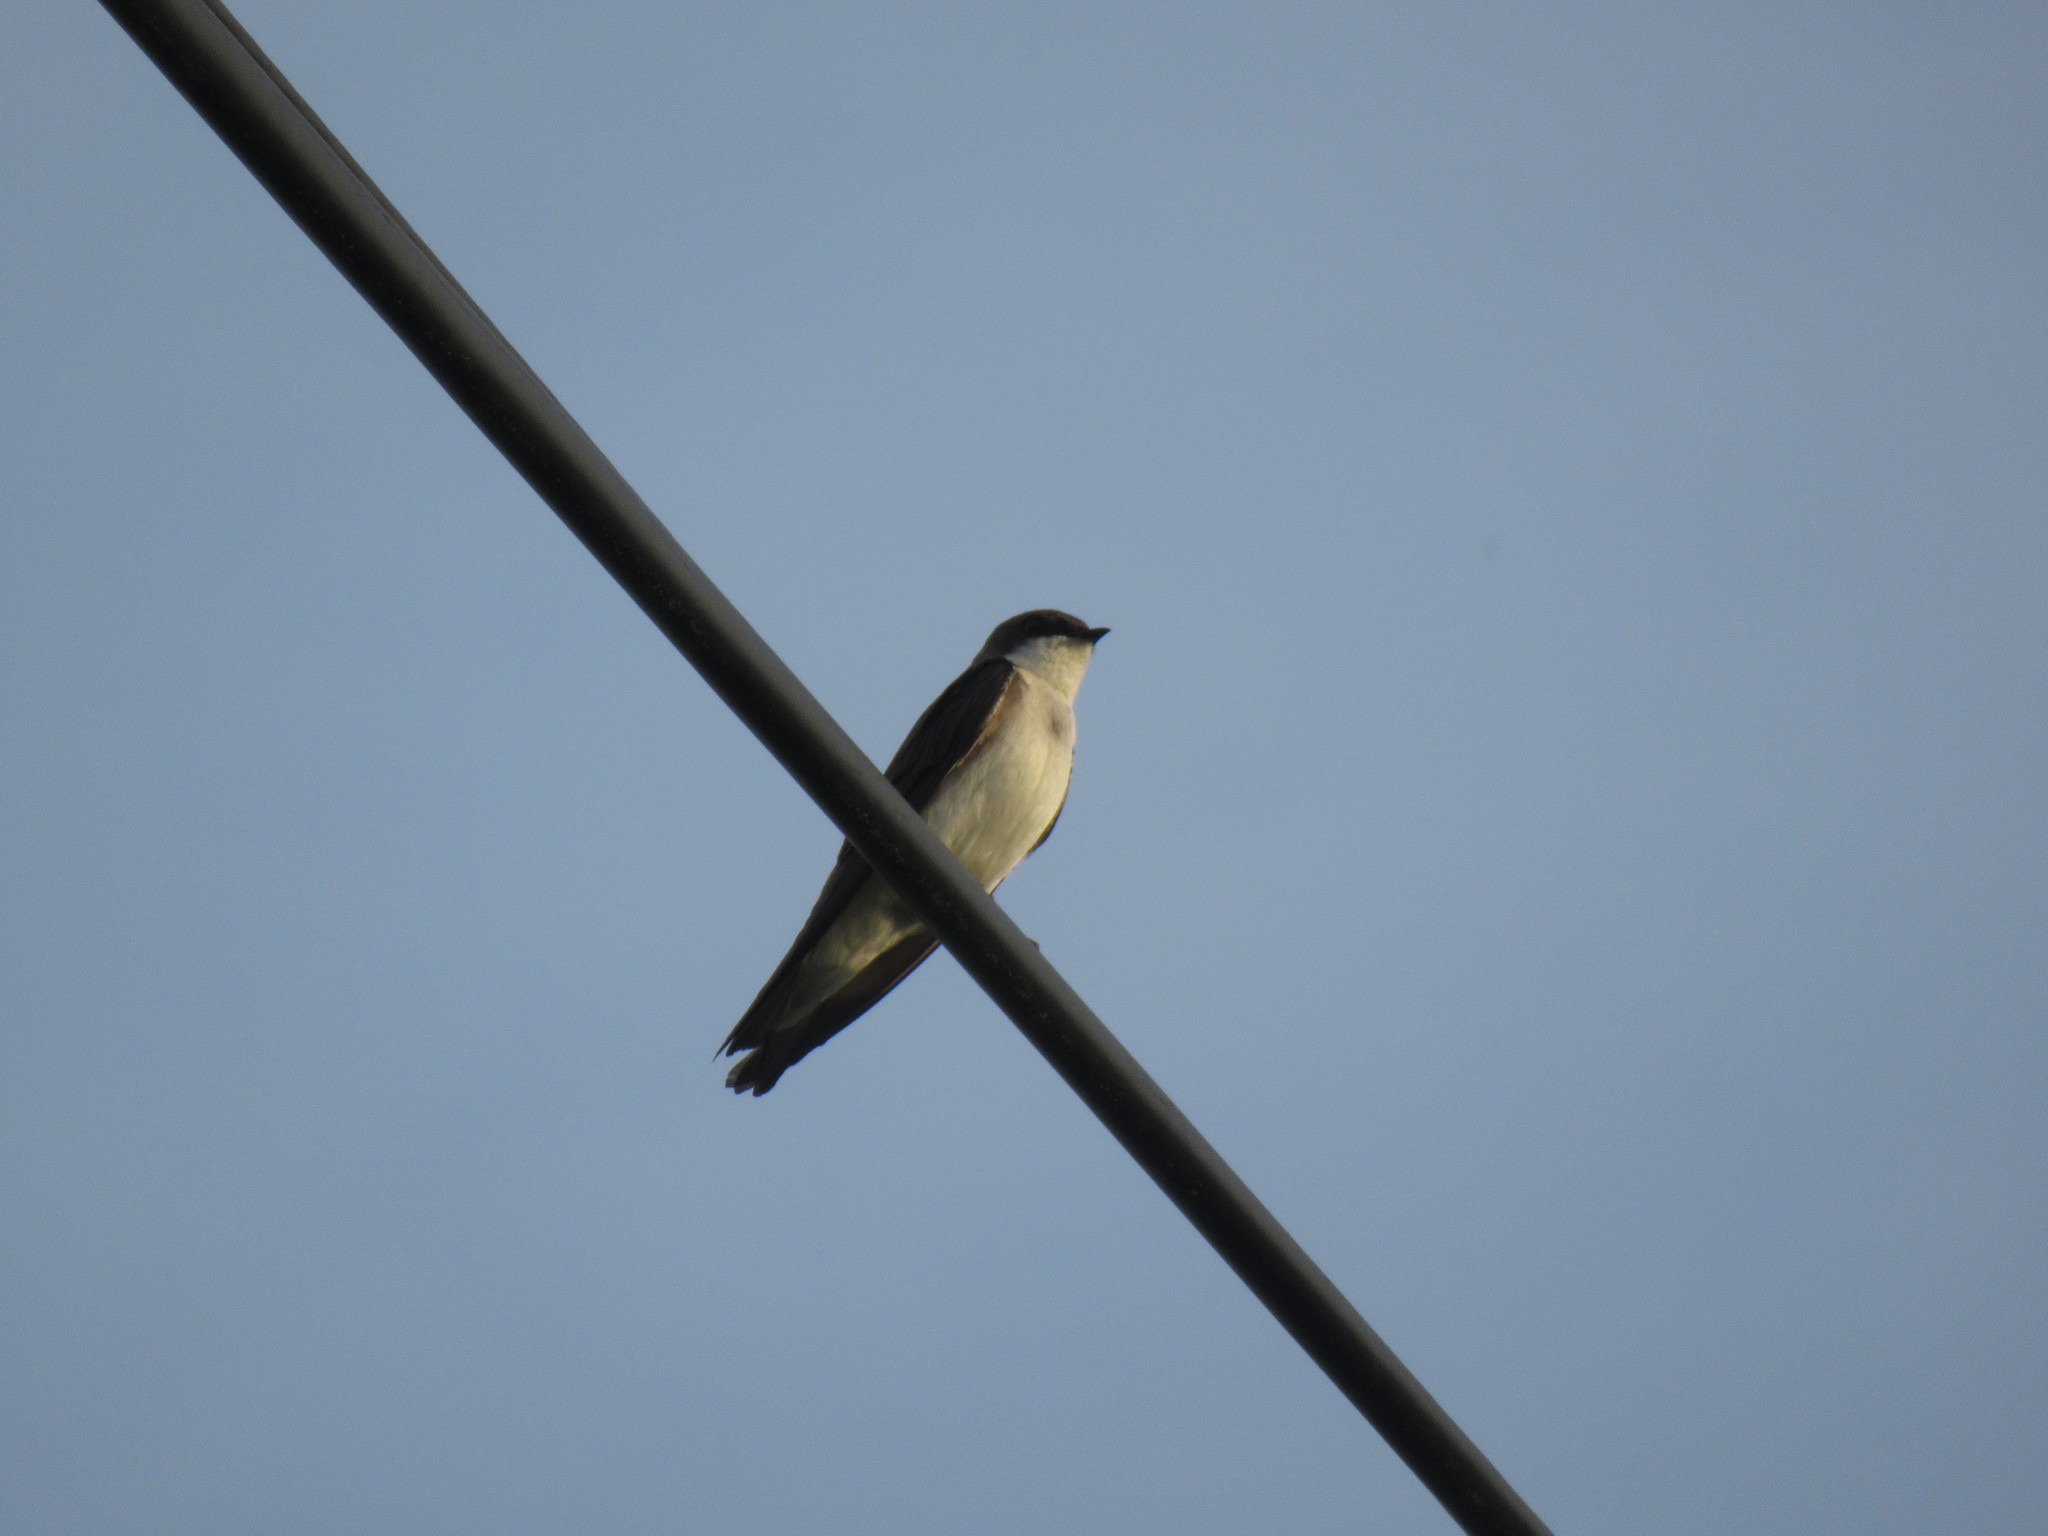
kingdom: Animalia
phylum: Chordata
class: Aves
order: Passeriformes
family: Hirundinidae
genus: Tachycineta
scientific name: Tachycineta bicolor
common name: Tree swallow
